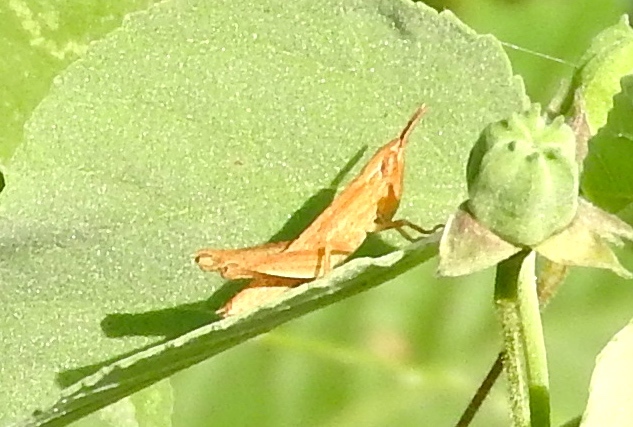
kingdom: Animalia
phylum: Arthropoda
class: Insecta
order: Orthoptera
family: Acrididae
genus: Dichromorpha
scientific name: Dichromorpha prominula
